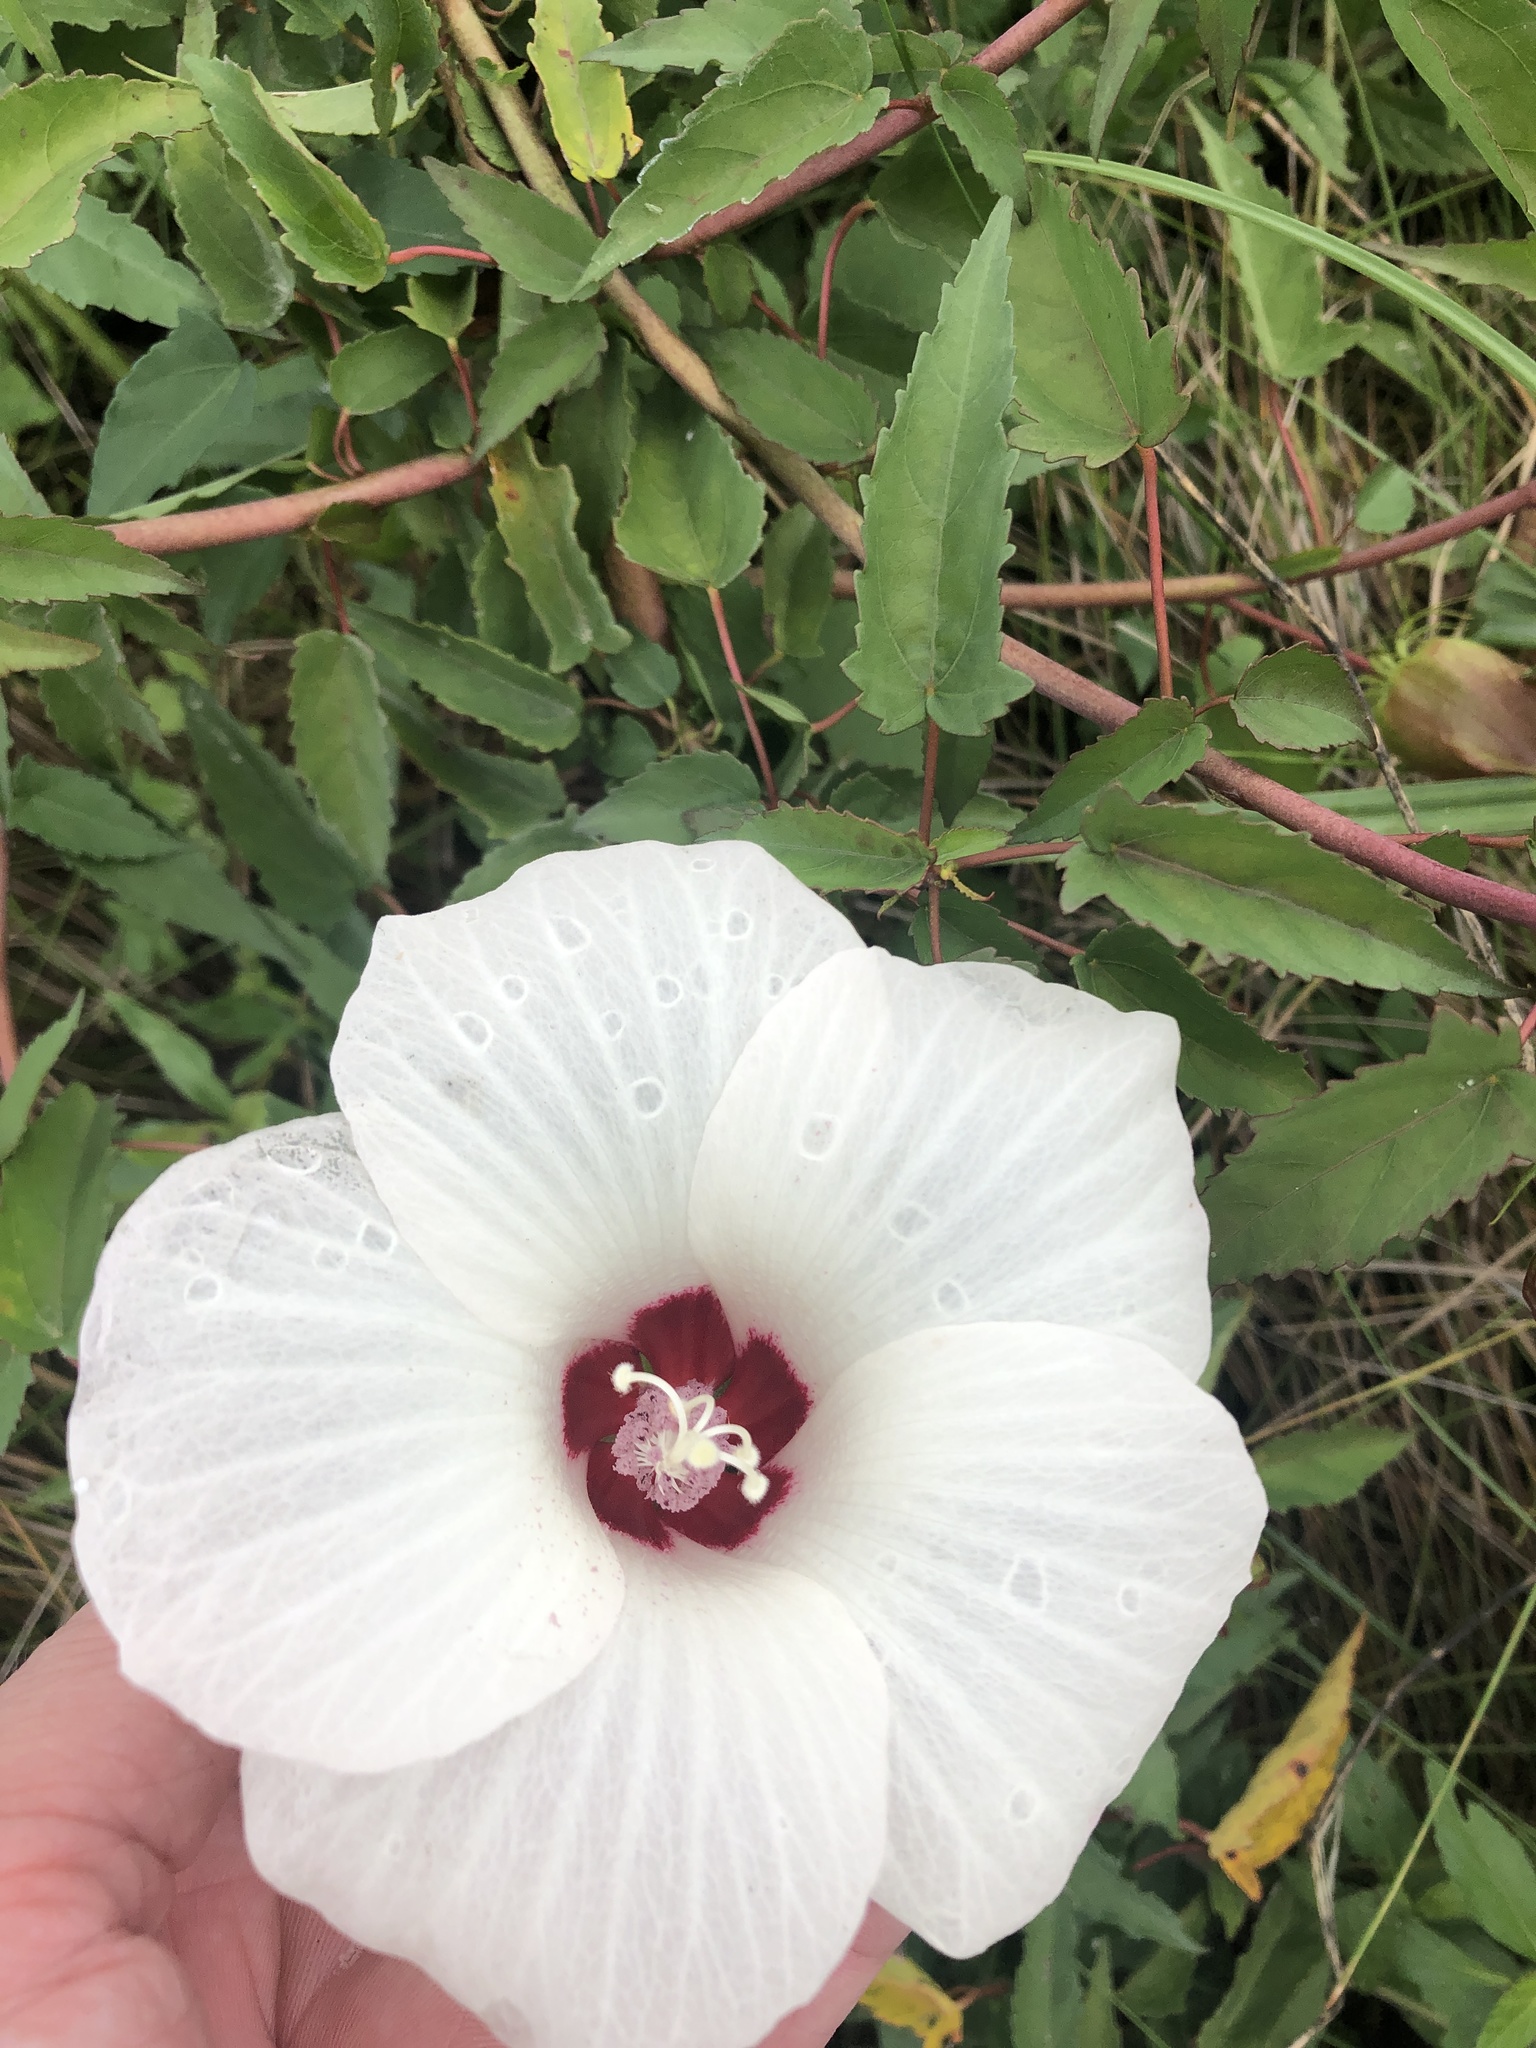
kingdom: Plantae
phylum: Tracheophyta
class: Magnoliopsida
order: Malvales
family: Malvaceae
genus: Hibiscus
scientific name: Hibiscus laevis
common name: Scarlet rose-mallow
